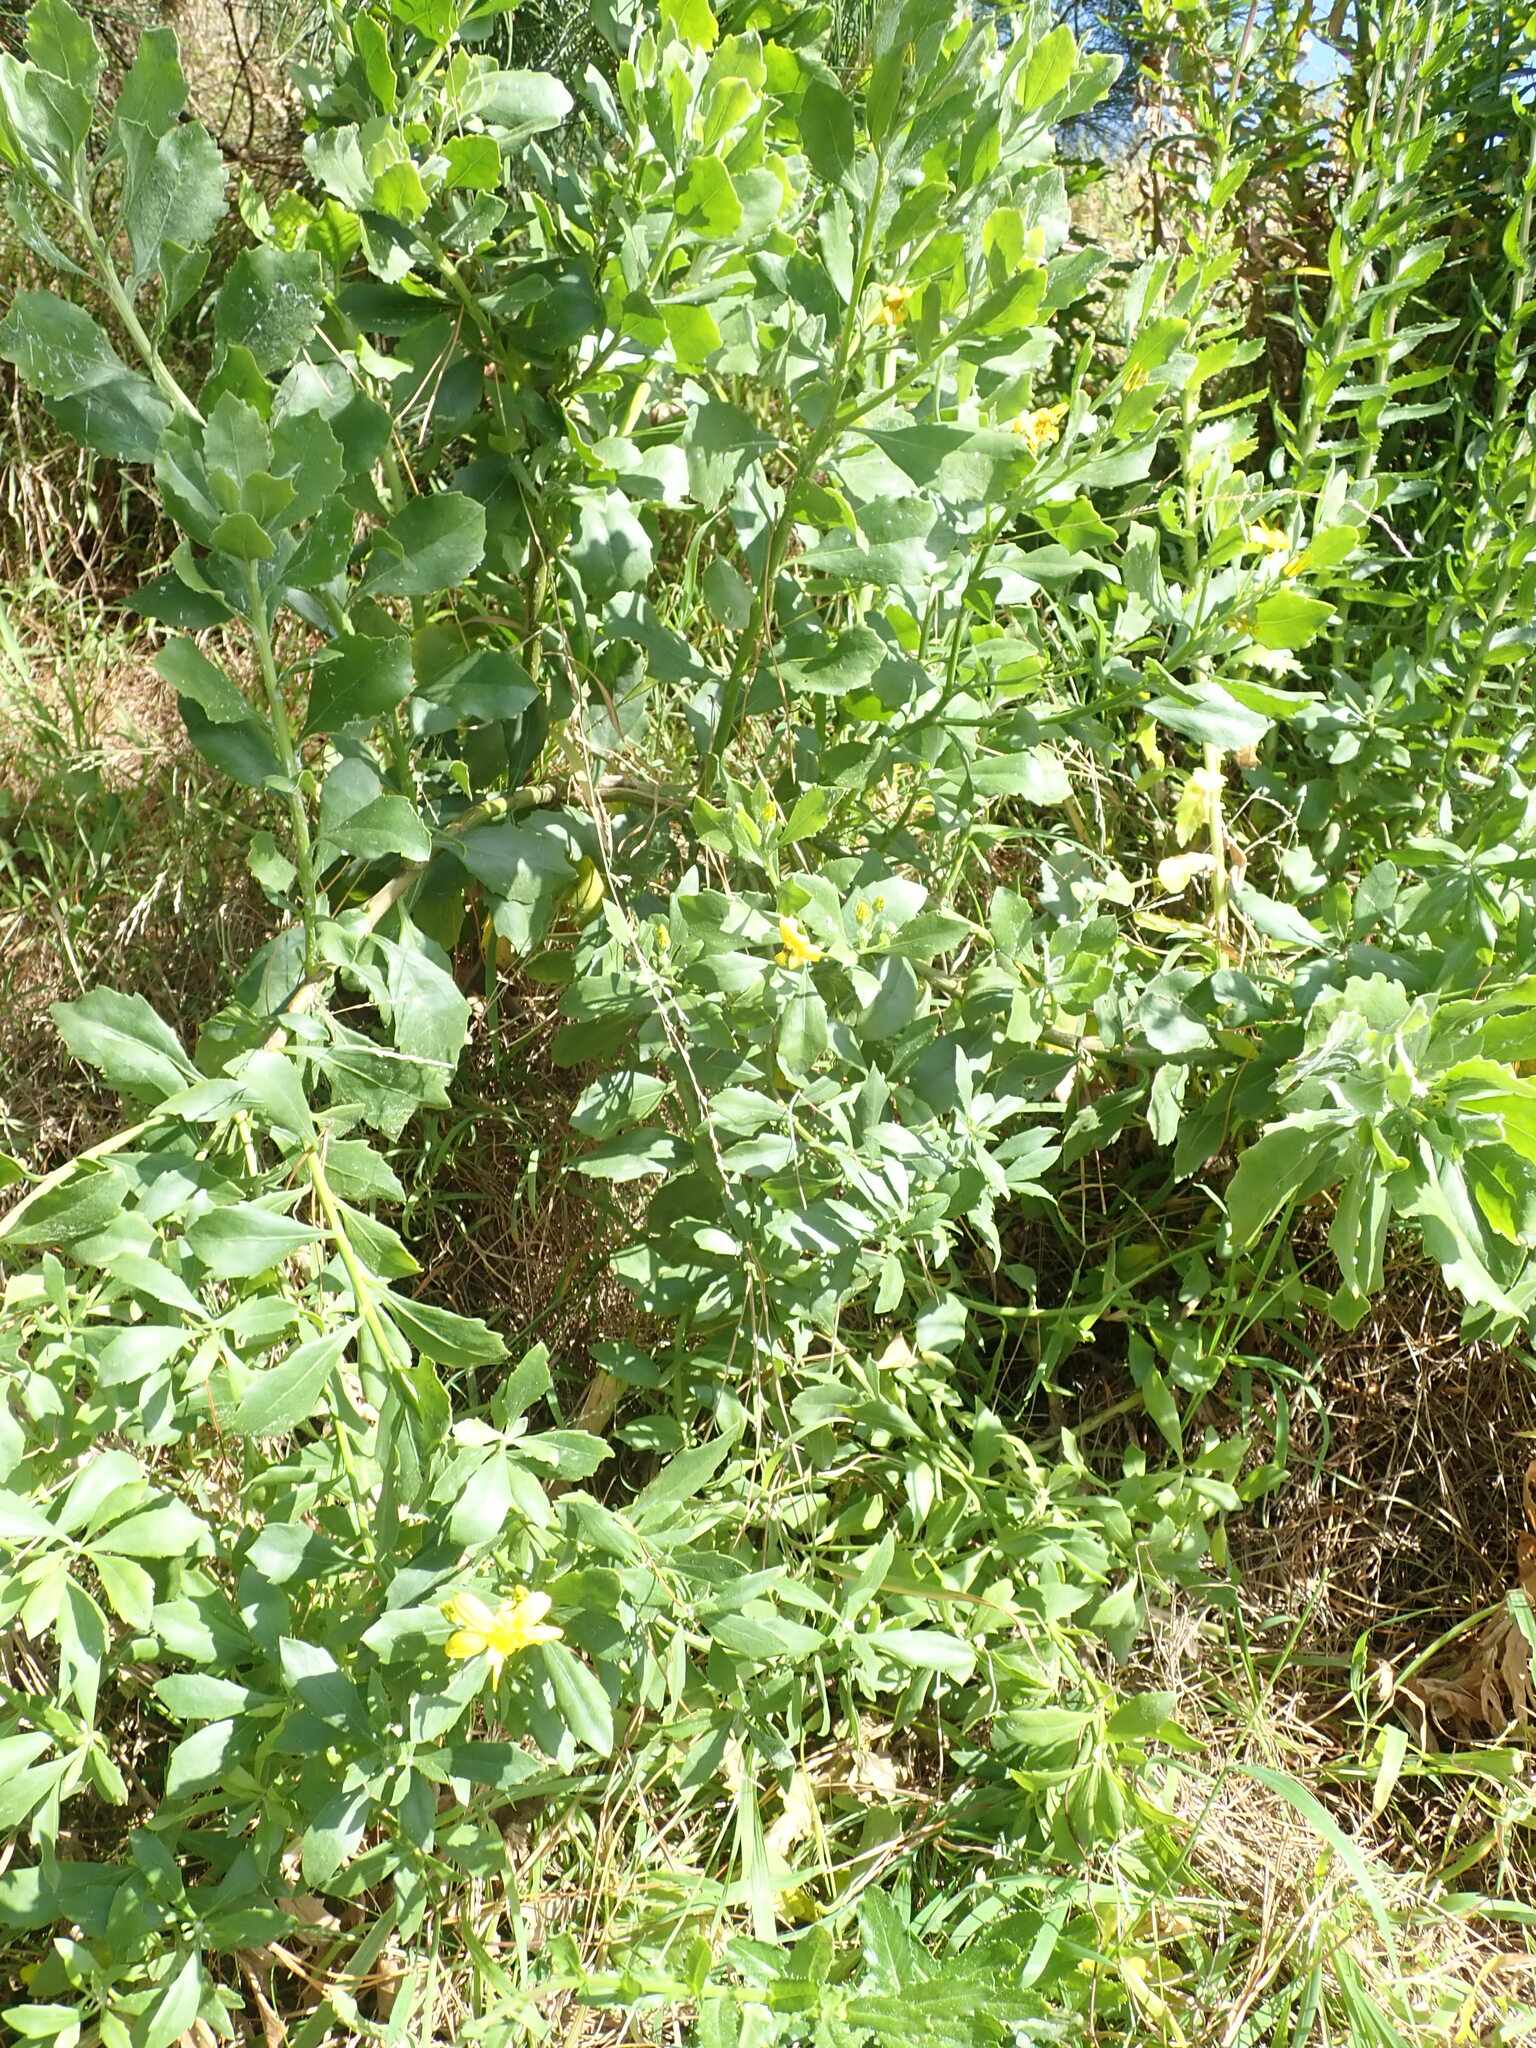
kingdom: Plantae
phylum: Tracheophyta
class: Magnoliopsida
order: Asterales
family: Asteraceae
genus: Osteospermum
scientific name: Osteospermum moniliferum
